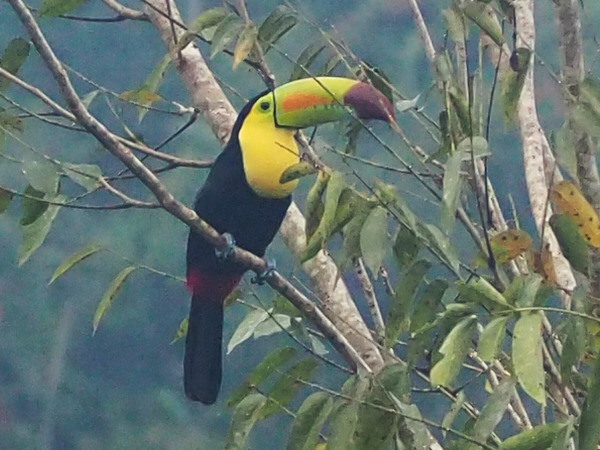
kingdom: Animalia
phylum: Chordata
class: Aves
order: Piciformes
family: Ramphastidae
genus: Ramphastos
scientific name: Ramphastos sulfuratus
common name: Keel-billed toucan
